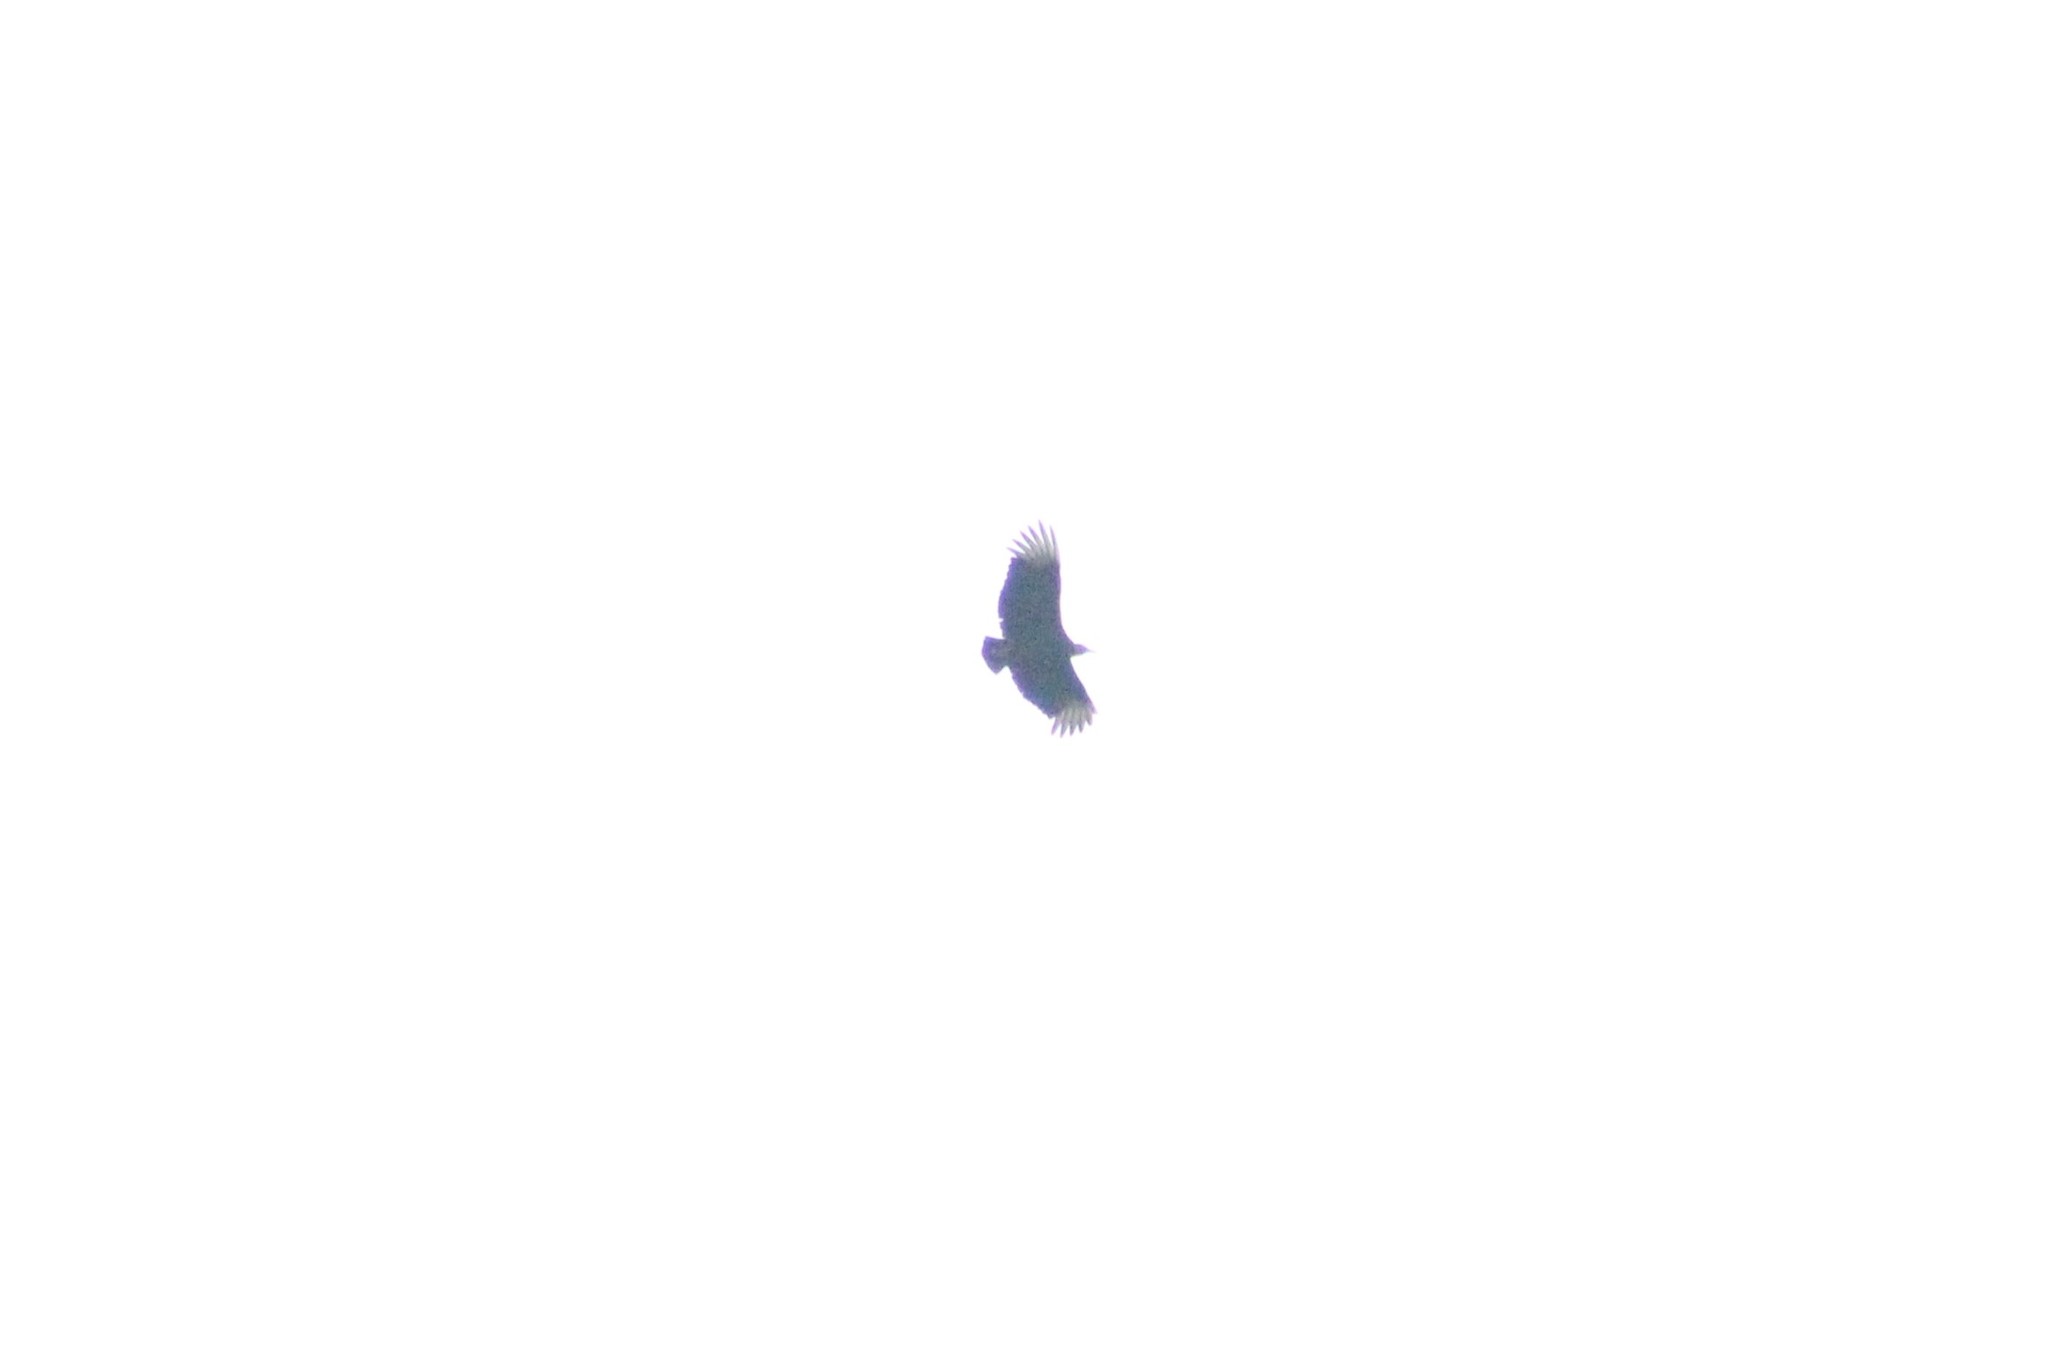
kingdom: Animalia
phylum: Chordata
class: Aves
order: Accipitriformes
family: Cathartidae
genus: Coragyps
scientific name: Coragyps atratus
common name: Black vulture
